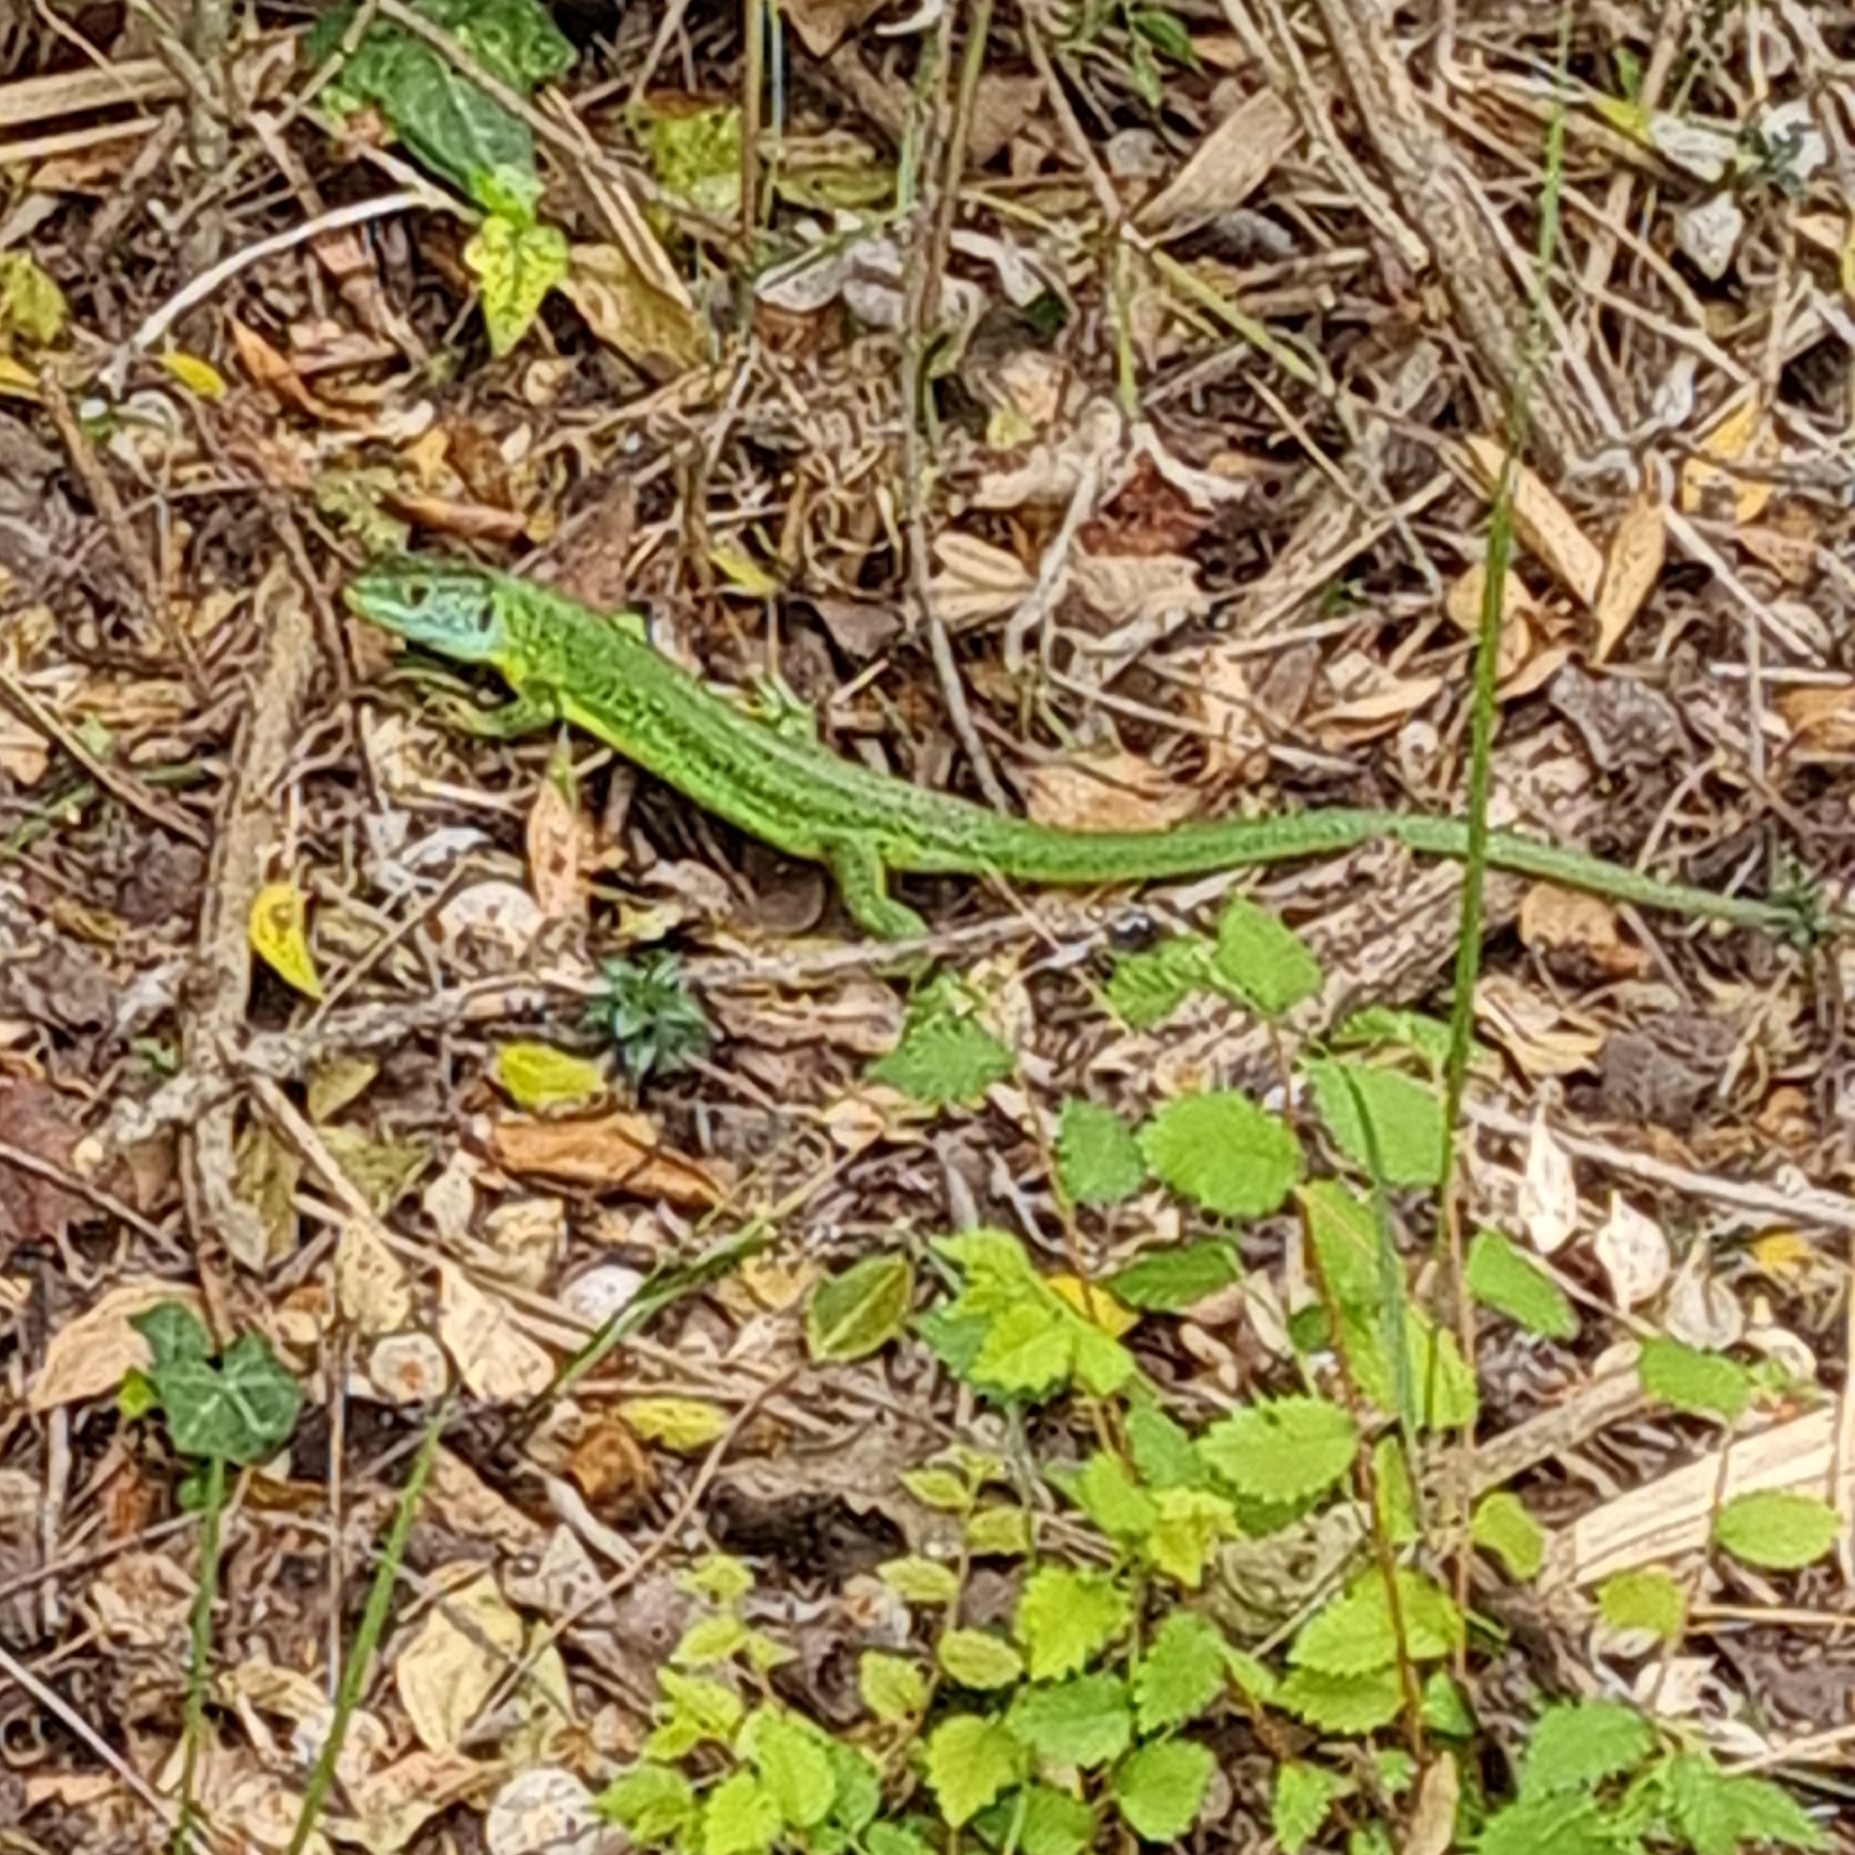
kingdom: Animalia
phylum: Chordata
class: Squamata
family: Lacertidae
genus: Lacerta
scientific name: Lacerta bilineata
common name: Western green lizard
